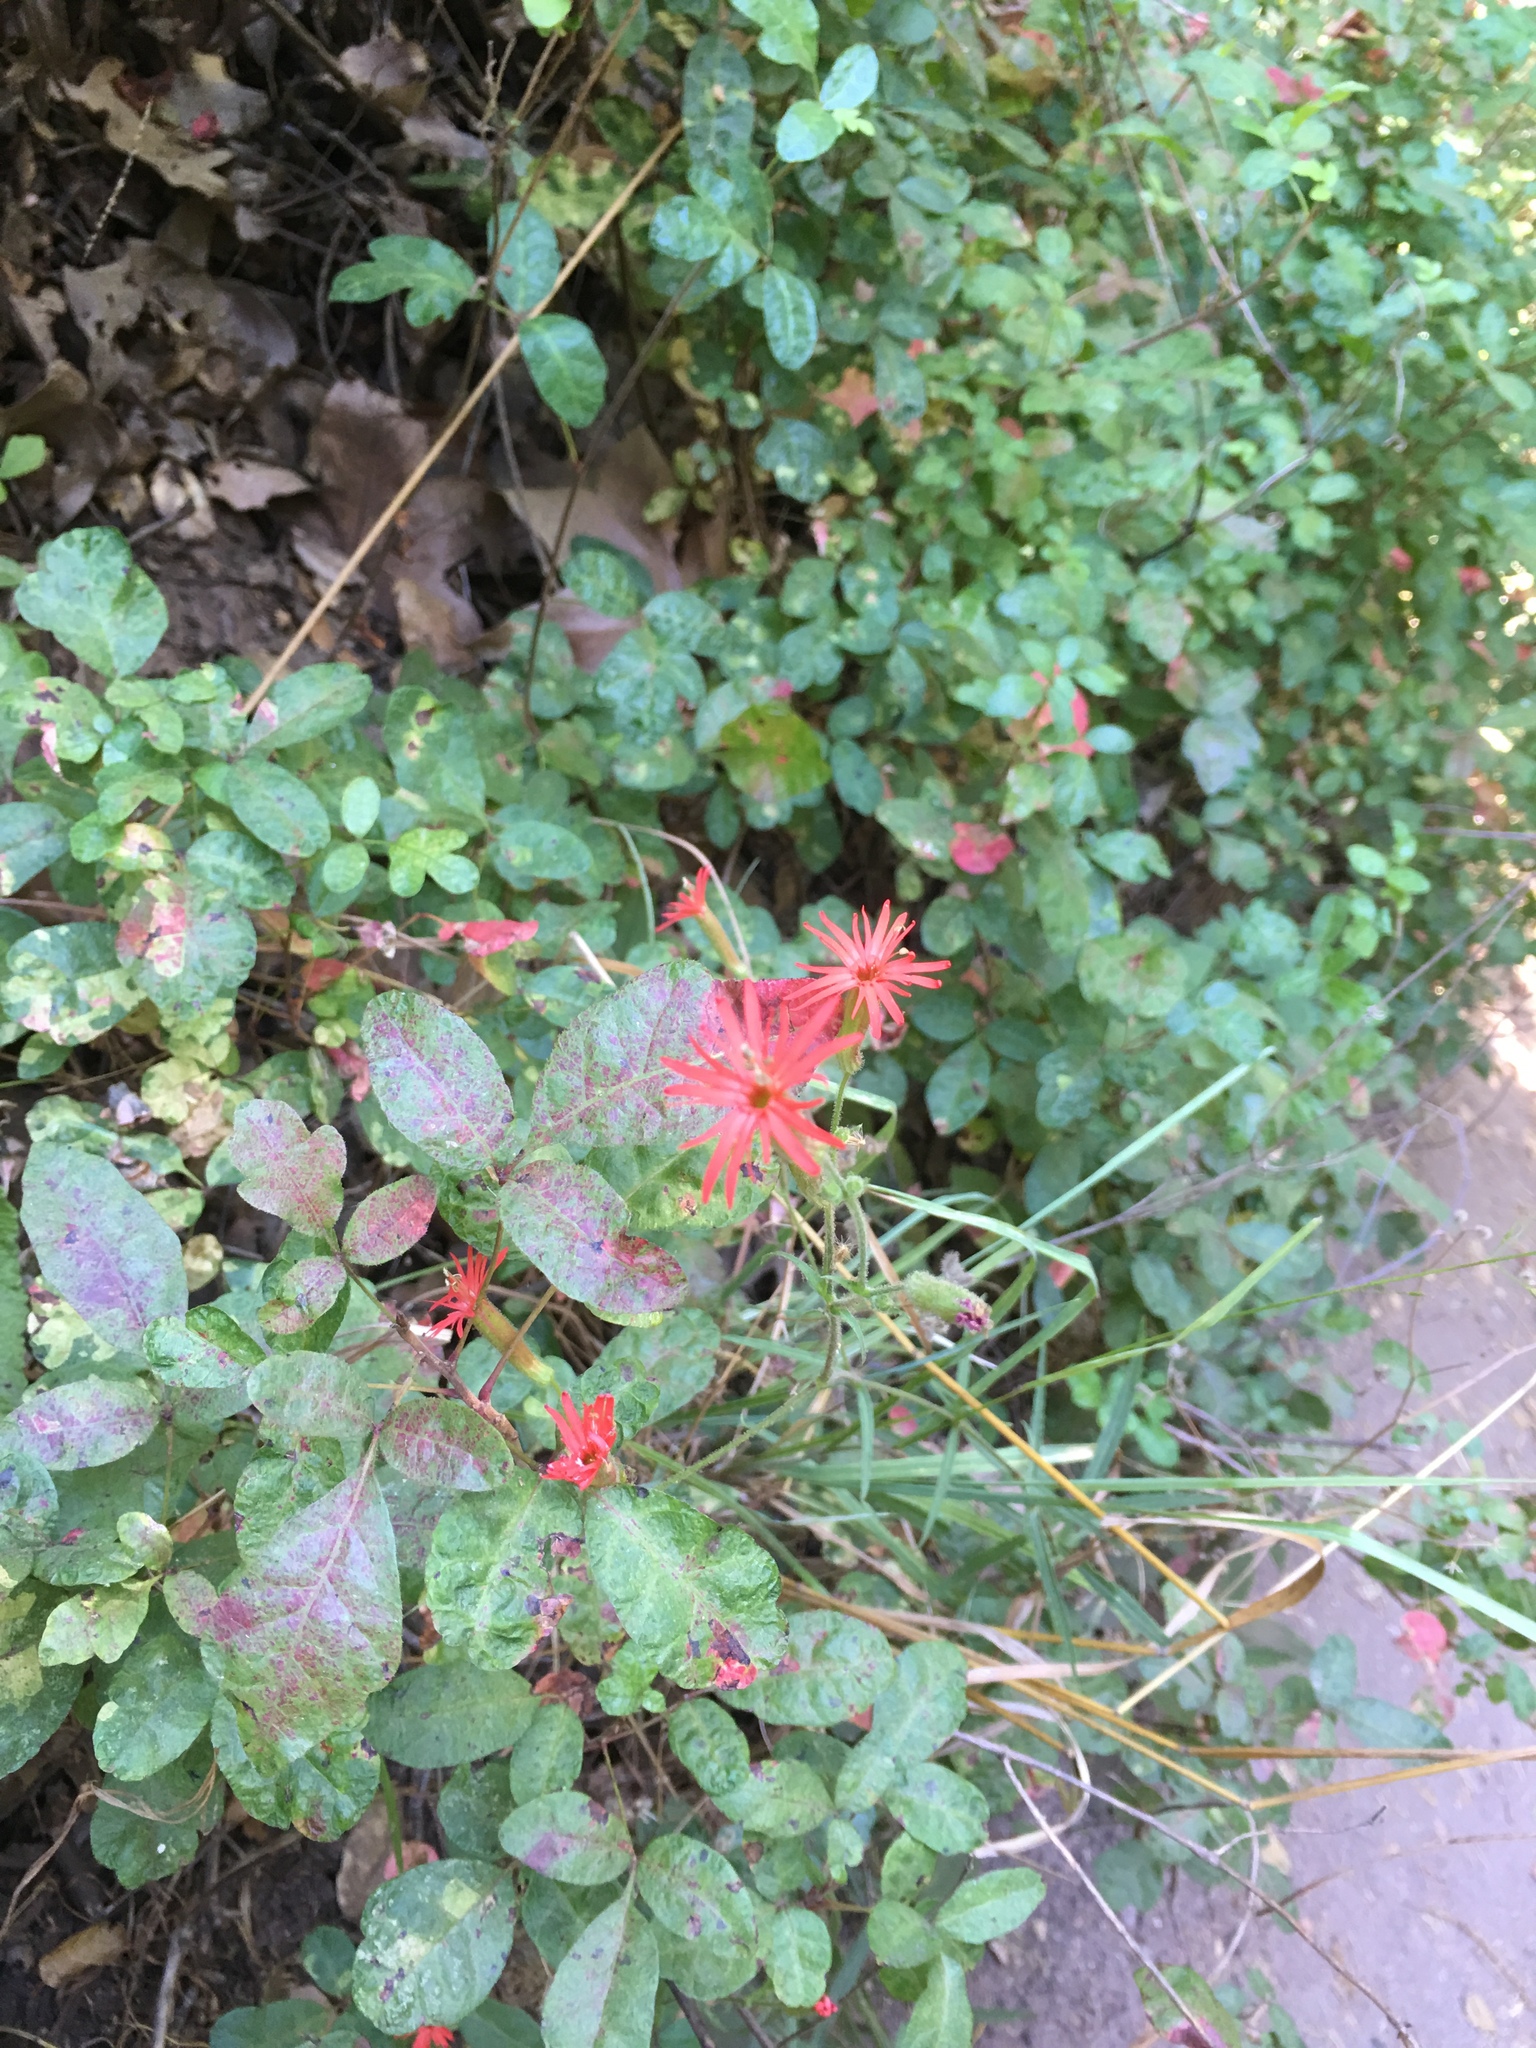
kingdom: Plantae
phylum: Tracheophyta
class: Magnoliopsida
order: Caryophyllales
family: Caryophyllaceae
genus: Silene
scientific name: Silene laciniata
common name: Indian-pink
